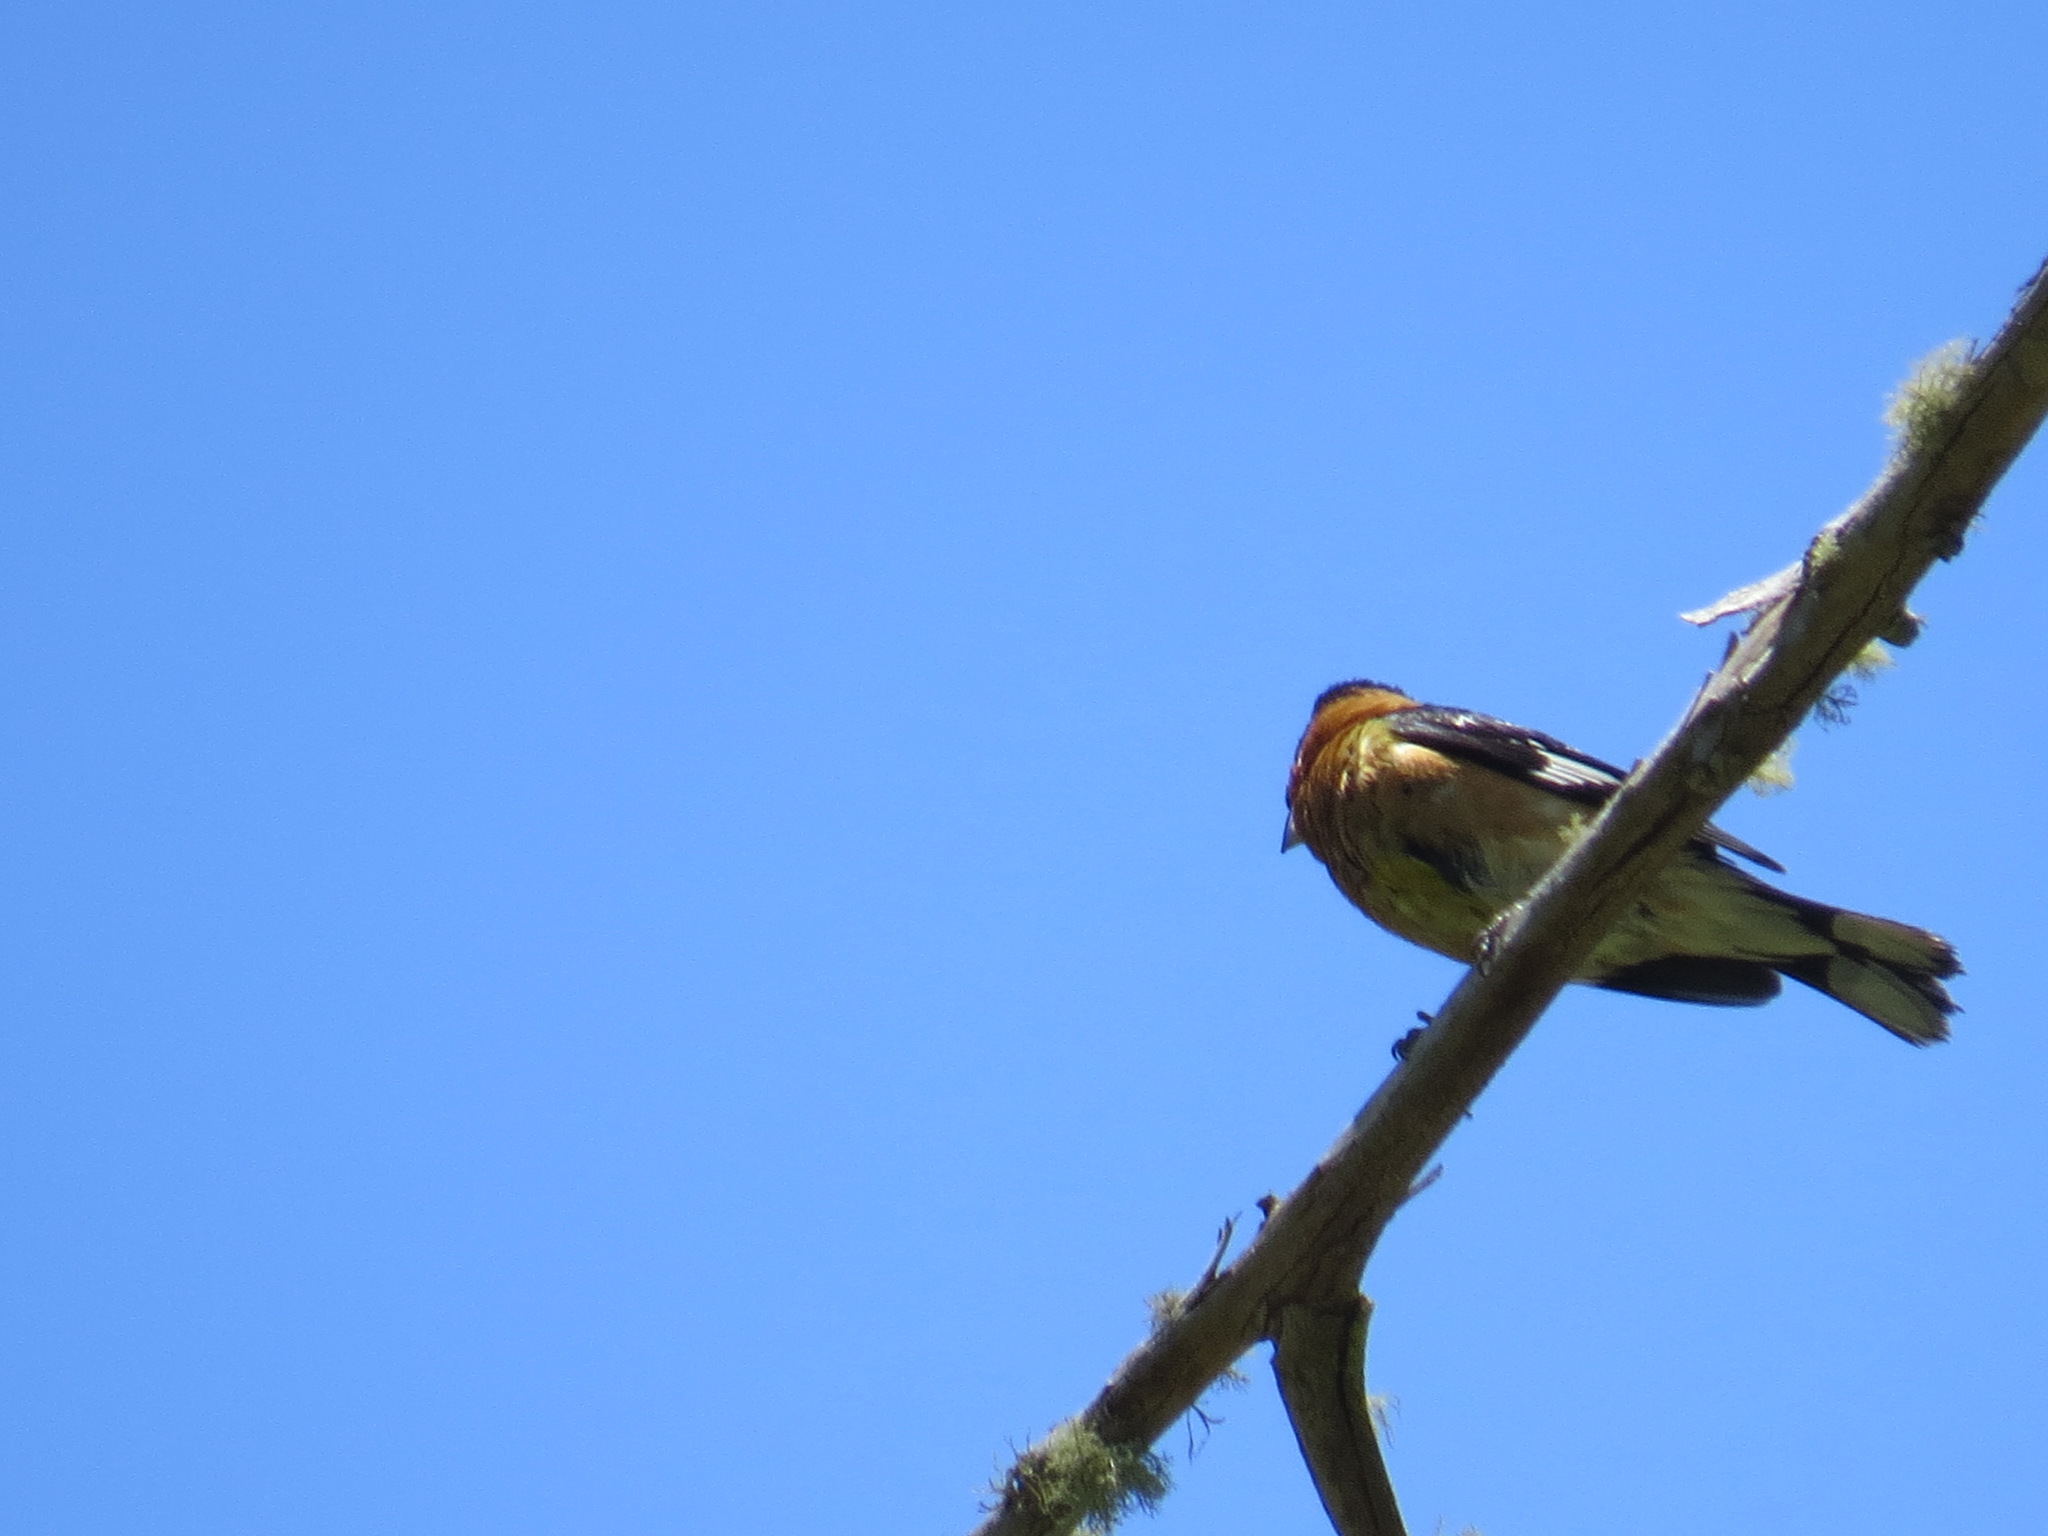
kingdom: Animalia
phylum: Chordata
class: Aves
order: Passeriformes
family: Cardinalidae
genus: Pheucticus
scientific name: Pheucticus melanocephalus
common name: Black-headed grosbeak
